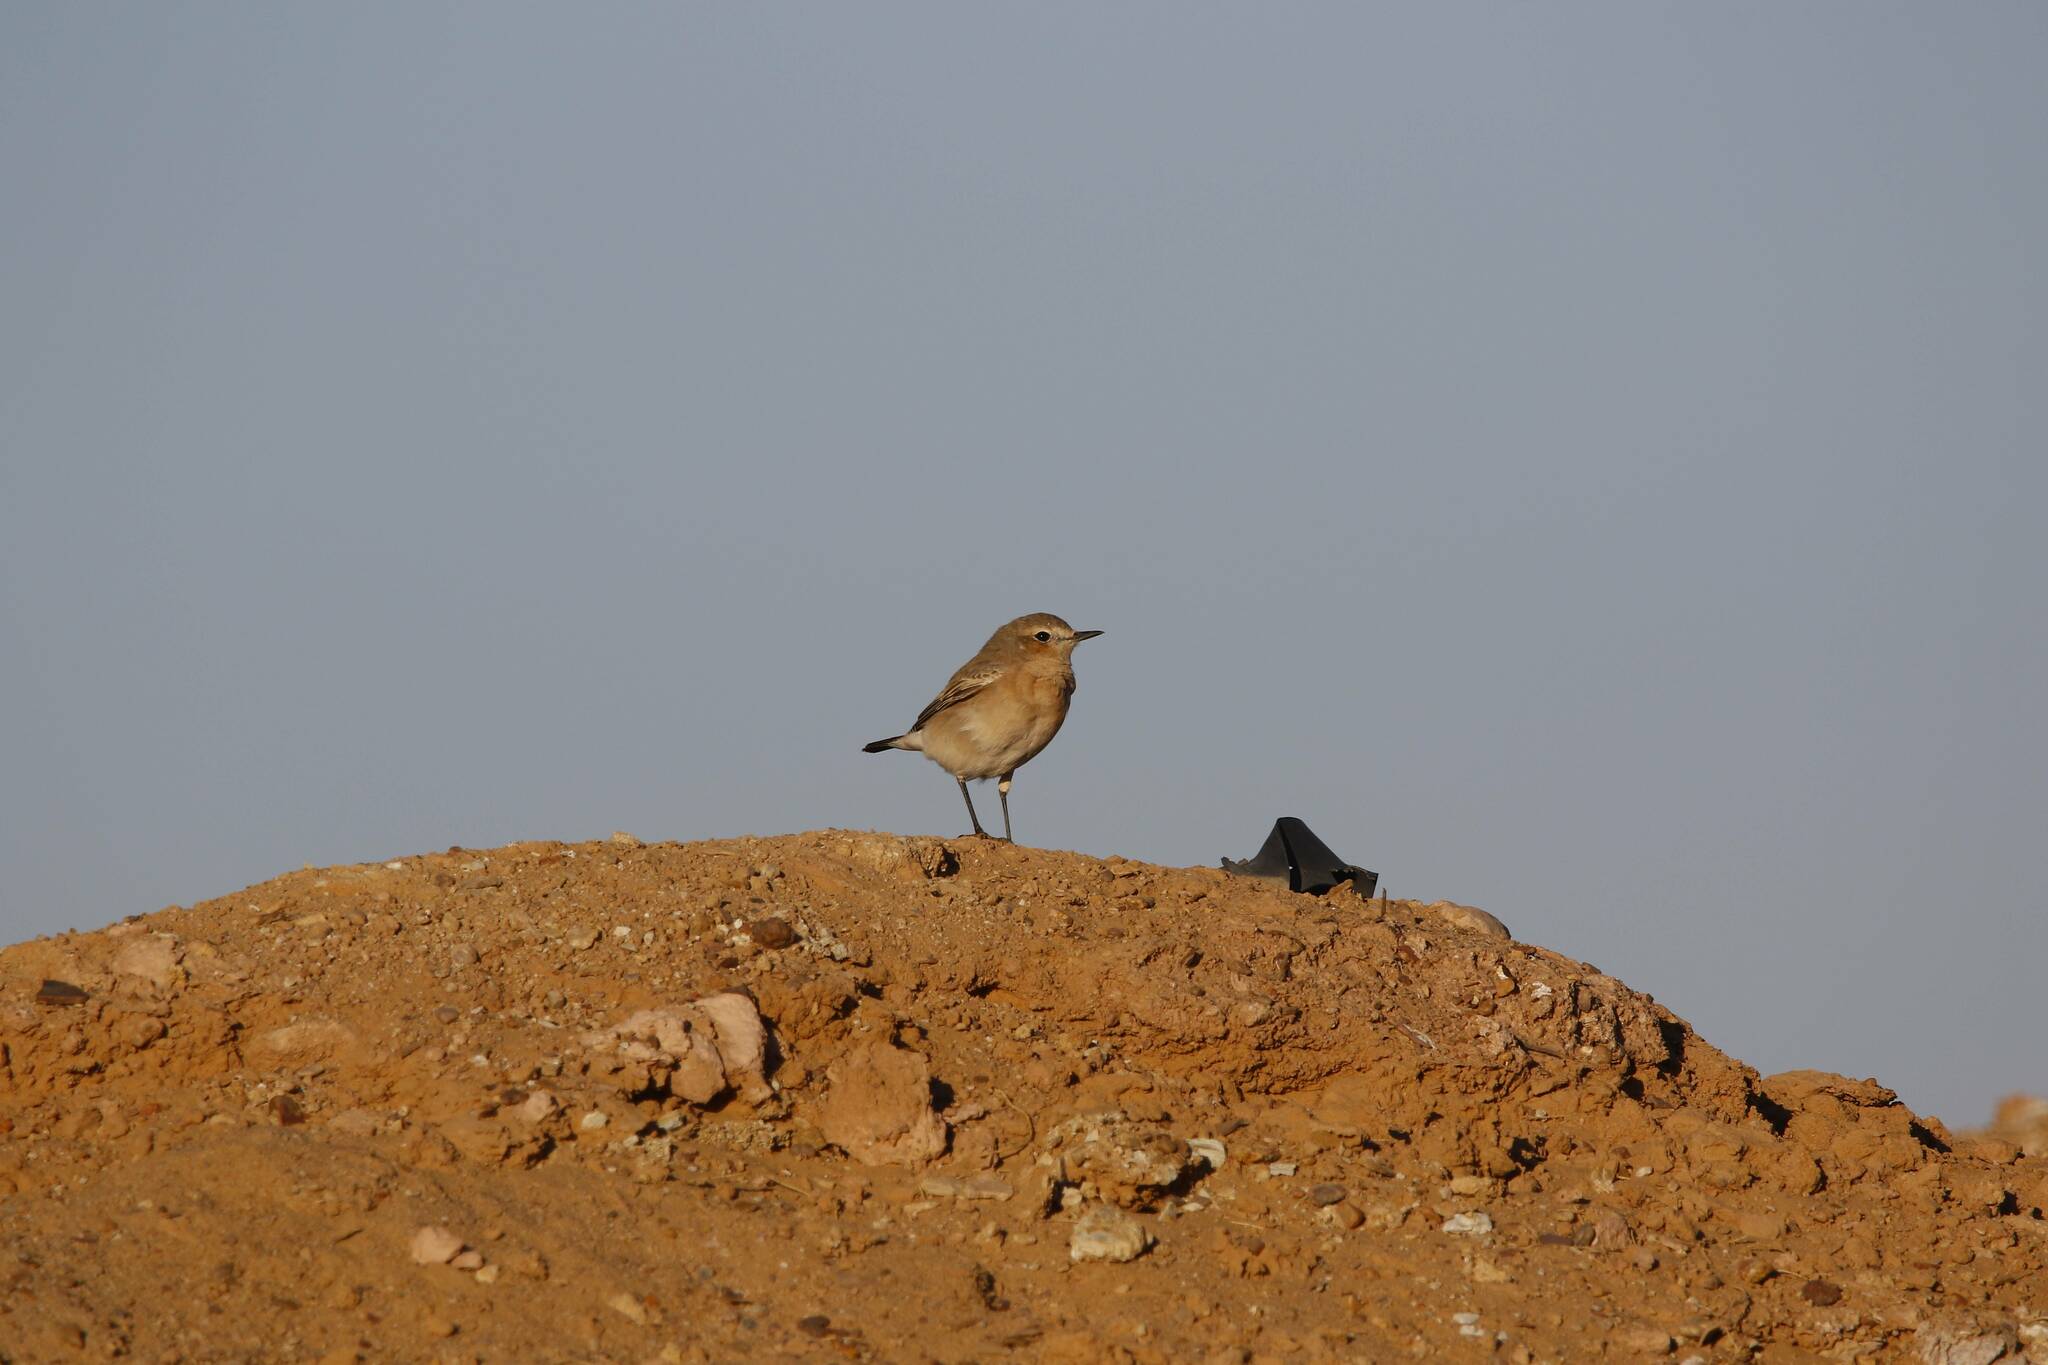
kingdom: Animalia
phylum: Chordata
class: Aves
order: Passeriformes
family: Muscicapidae
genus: Oenanthe
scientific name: Oenanthe isabellina
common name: Isabelline wheatear
